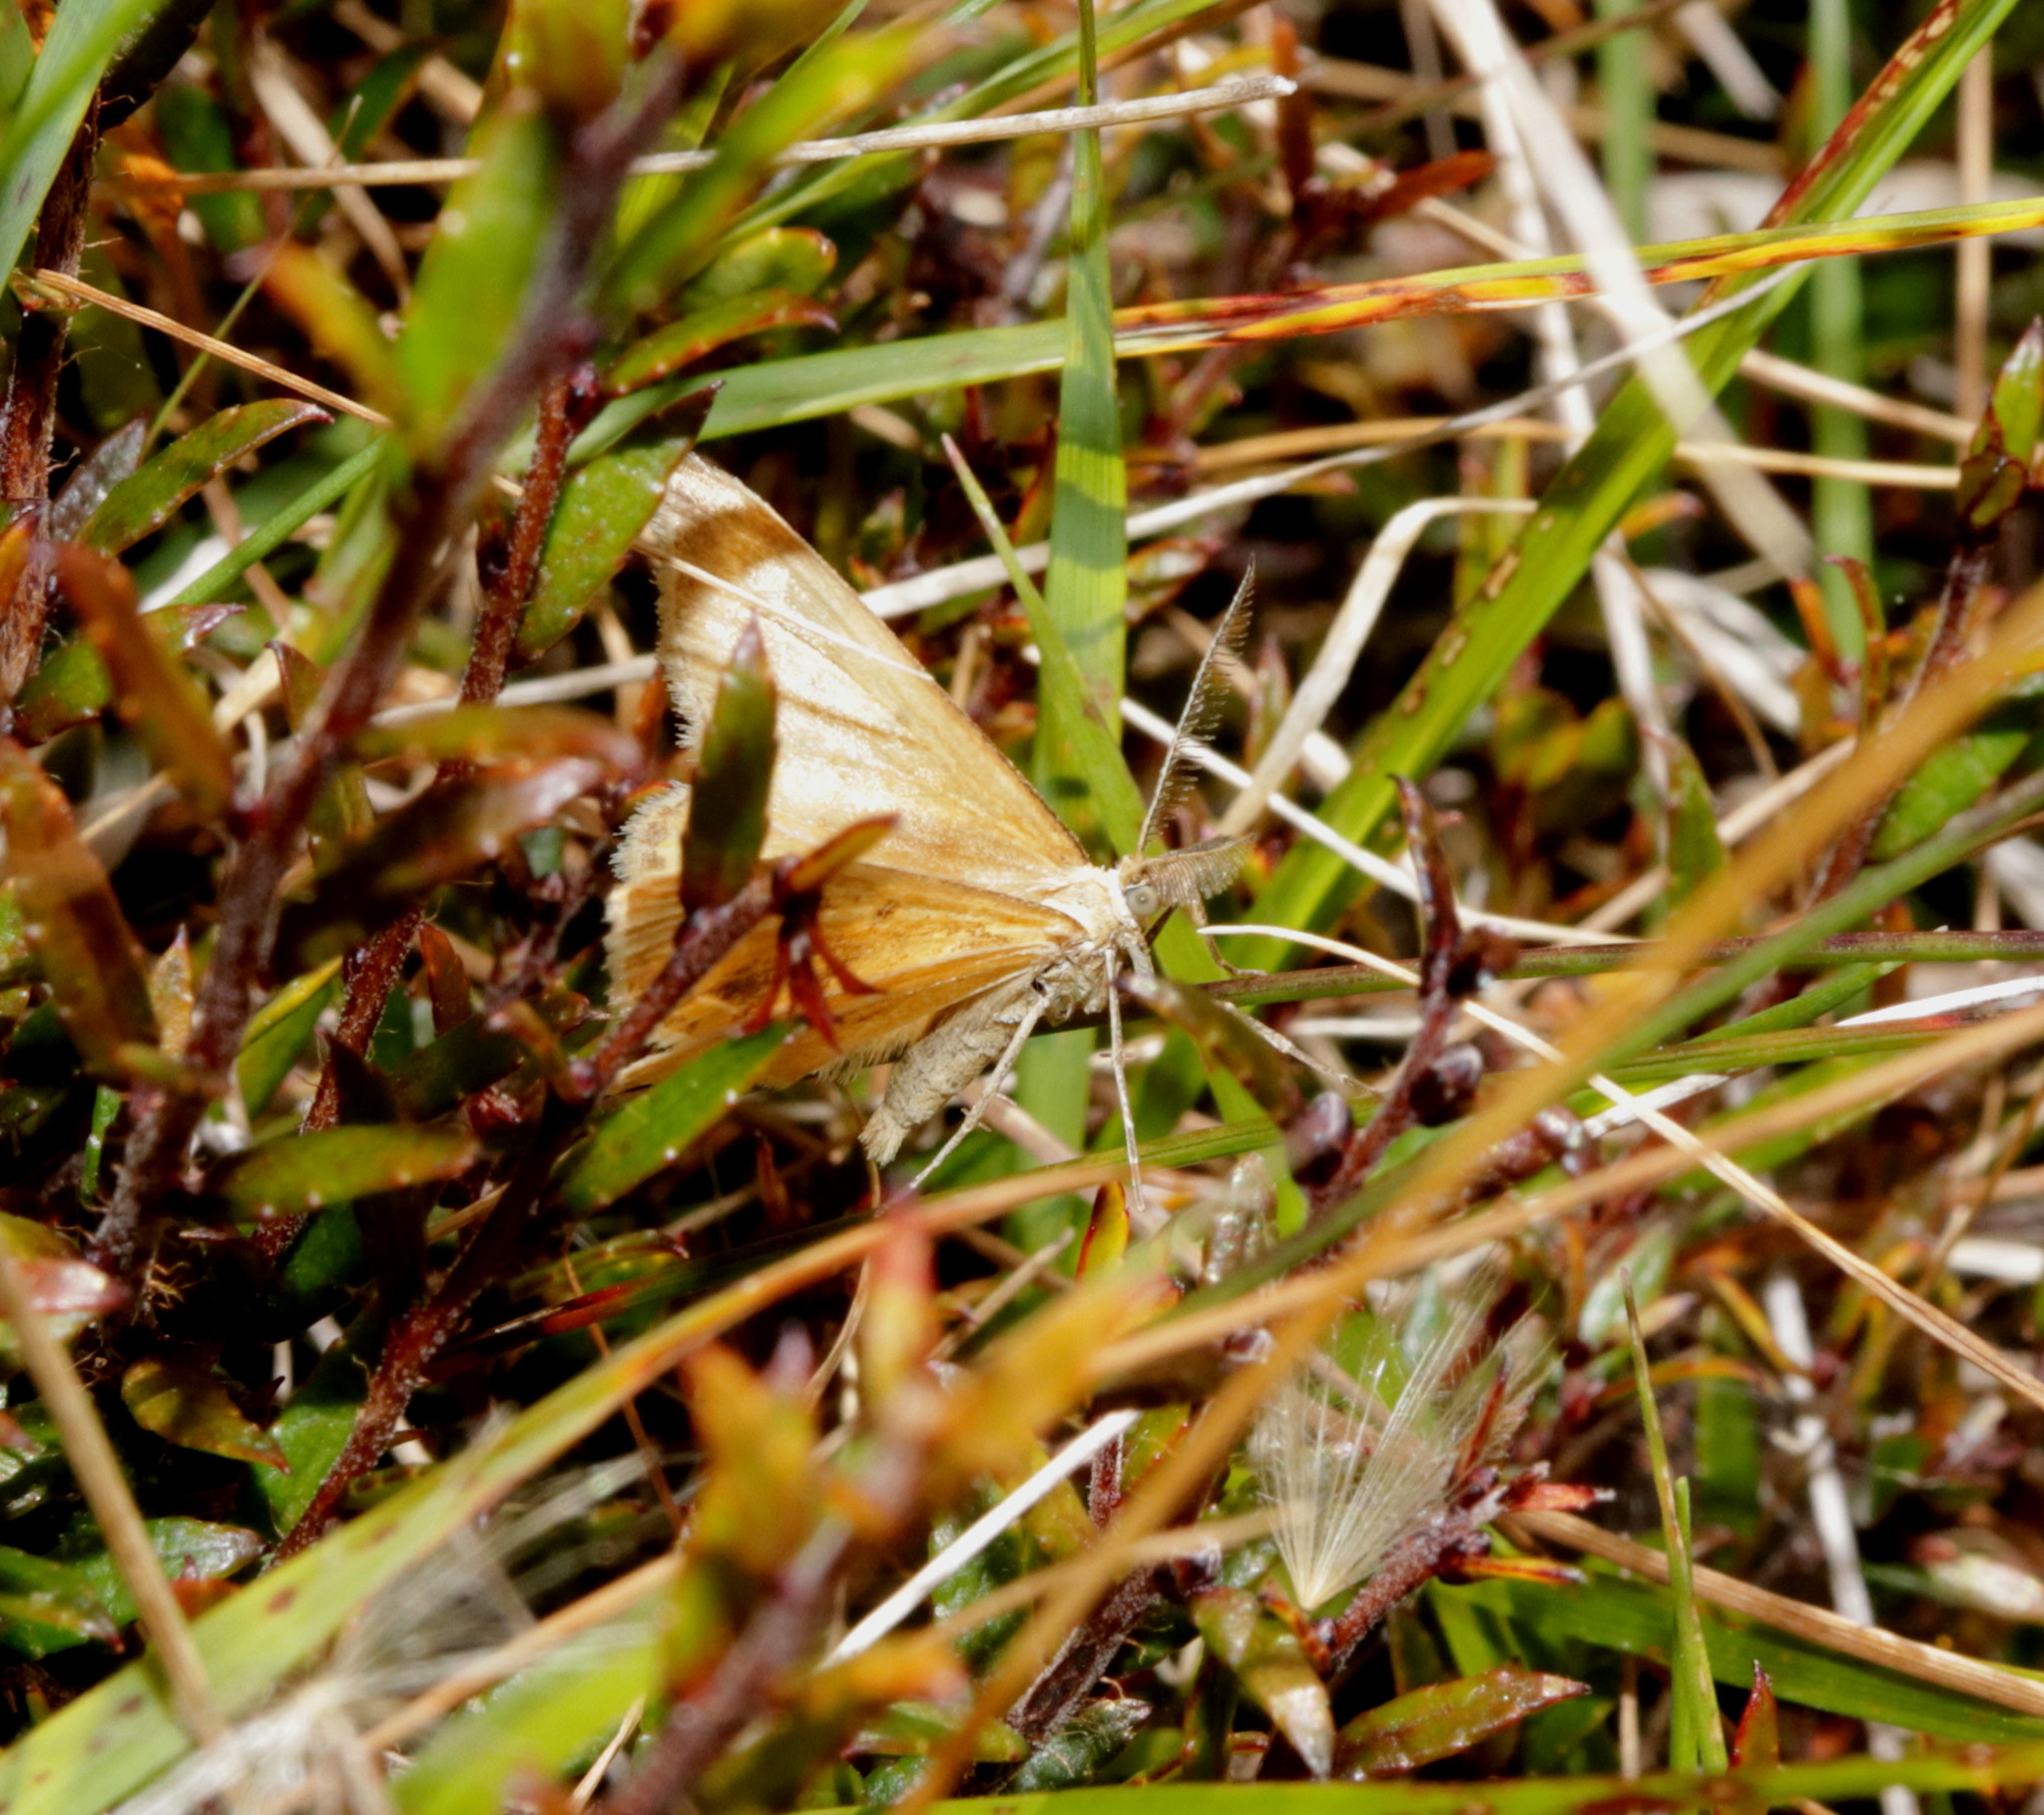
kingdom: Animalia
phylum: Arthropoda
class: Insecta
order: Lepidoptera
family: Geometridae
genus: Asaphodes
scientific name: Asaphodes abrogata
